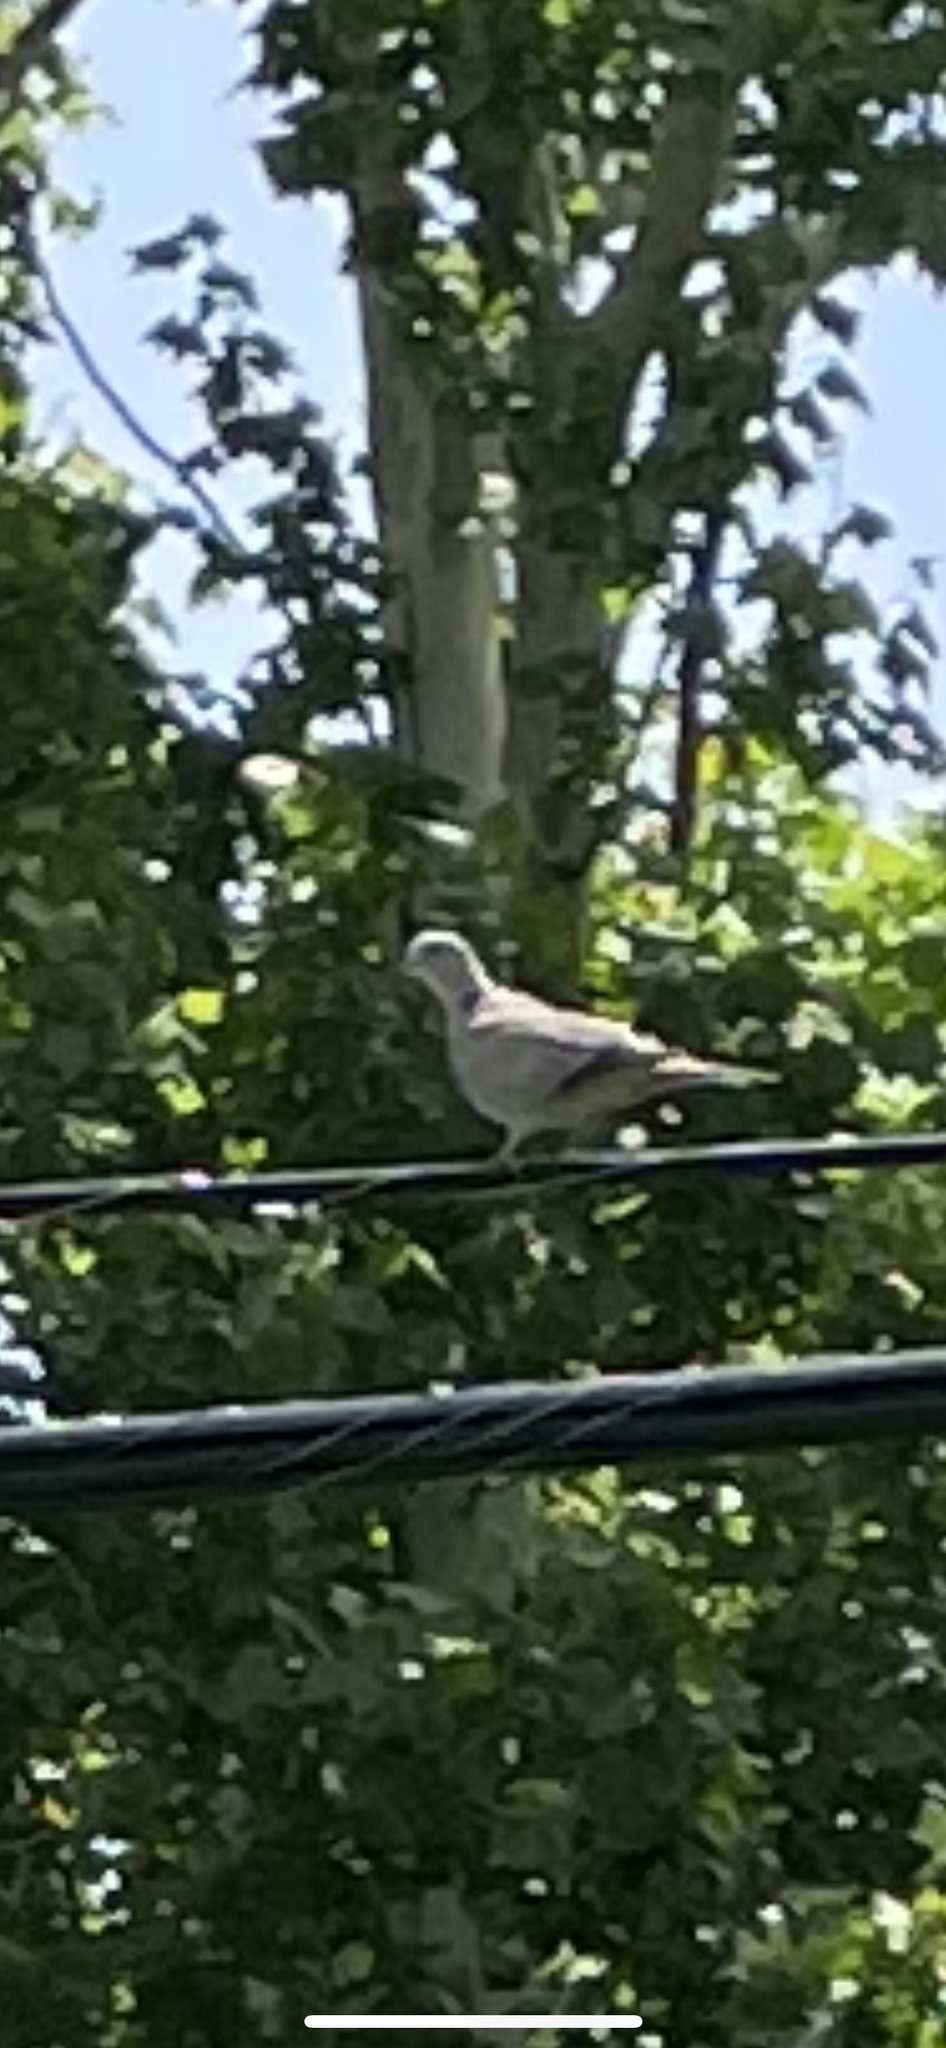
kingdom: Animalia
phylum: Chordata
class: Aves
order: Columbiformes
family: Columbidae
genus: Streptopelia
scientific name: Streptopelia decaocto
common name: Eurasian collared dove
